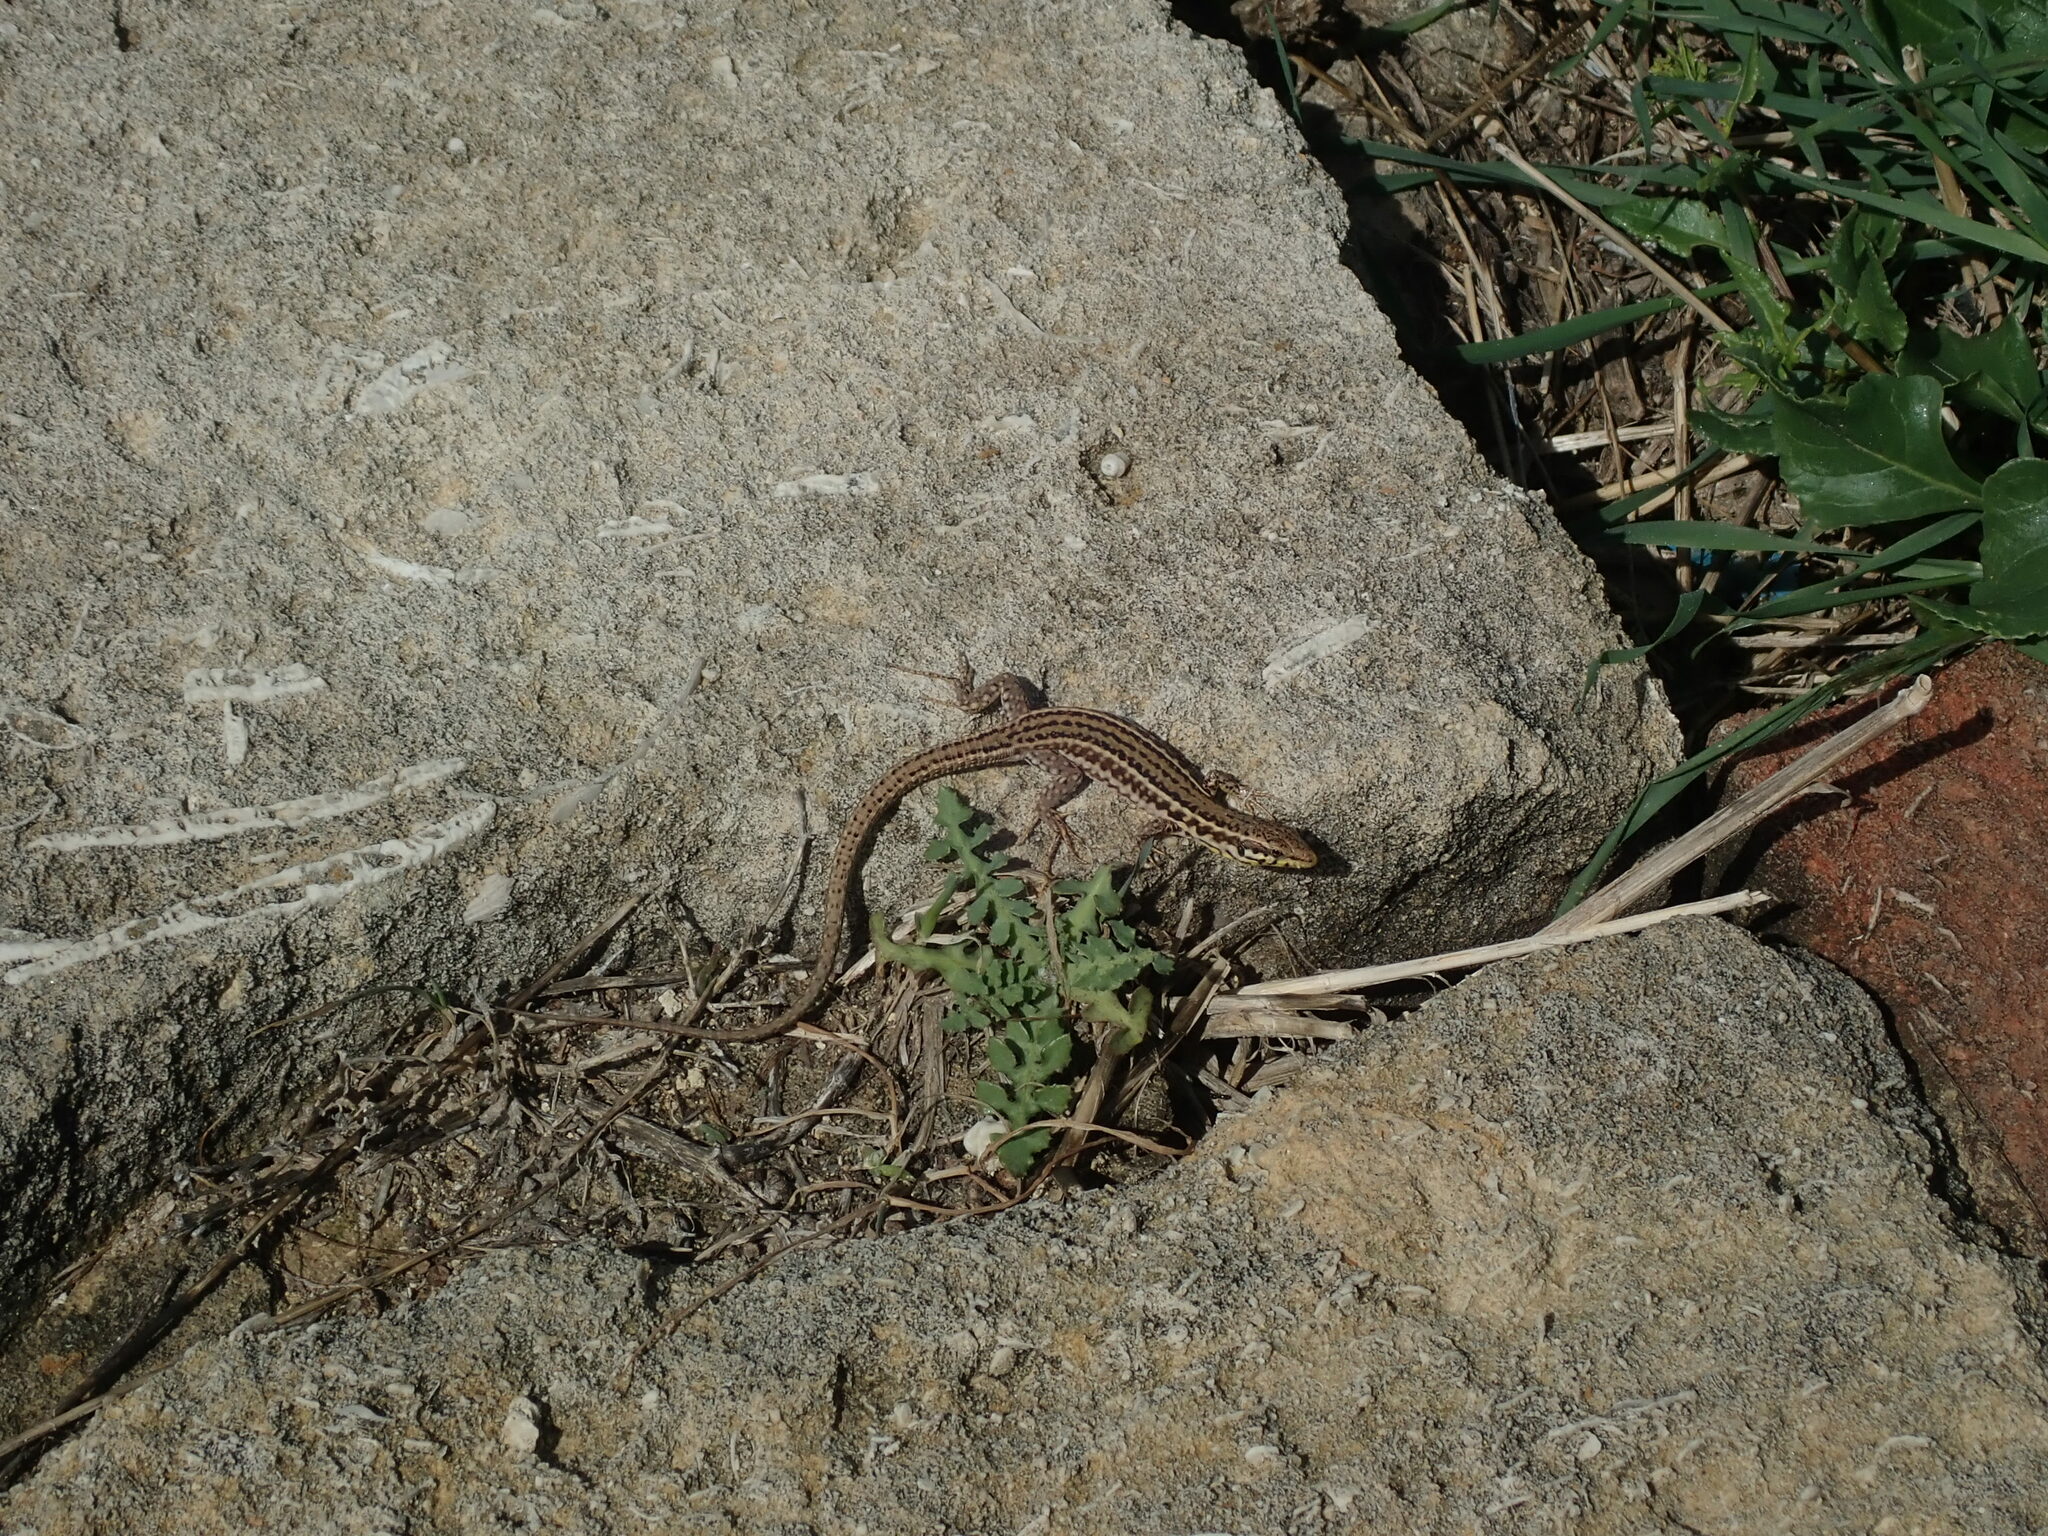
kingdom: Animalia
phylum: Chordata
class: Squamata
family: Lacertidae
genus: Podarcis
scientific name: Podarcis filfolensis
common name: Maltese wall lizard
